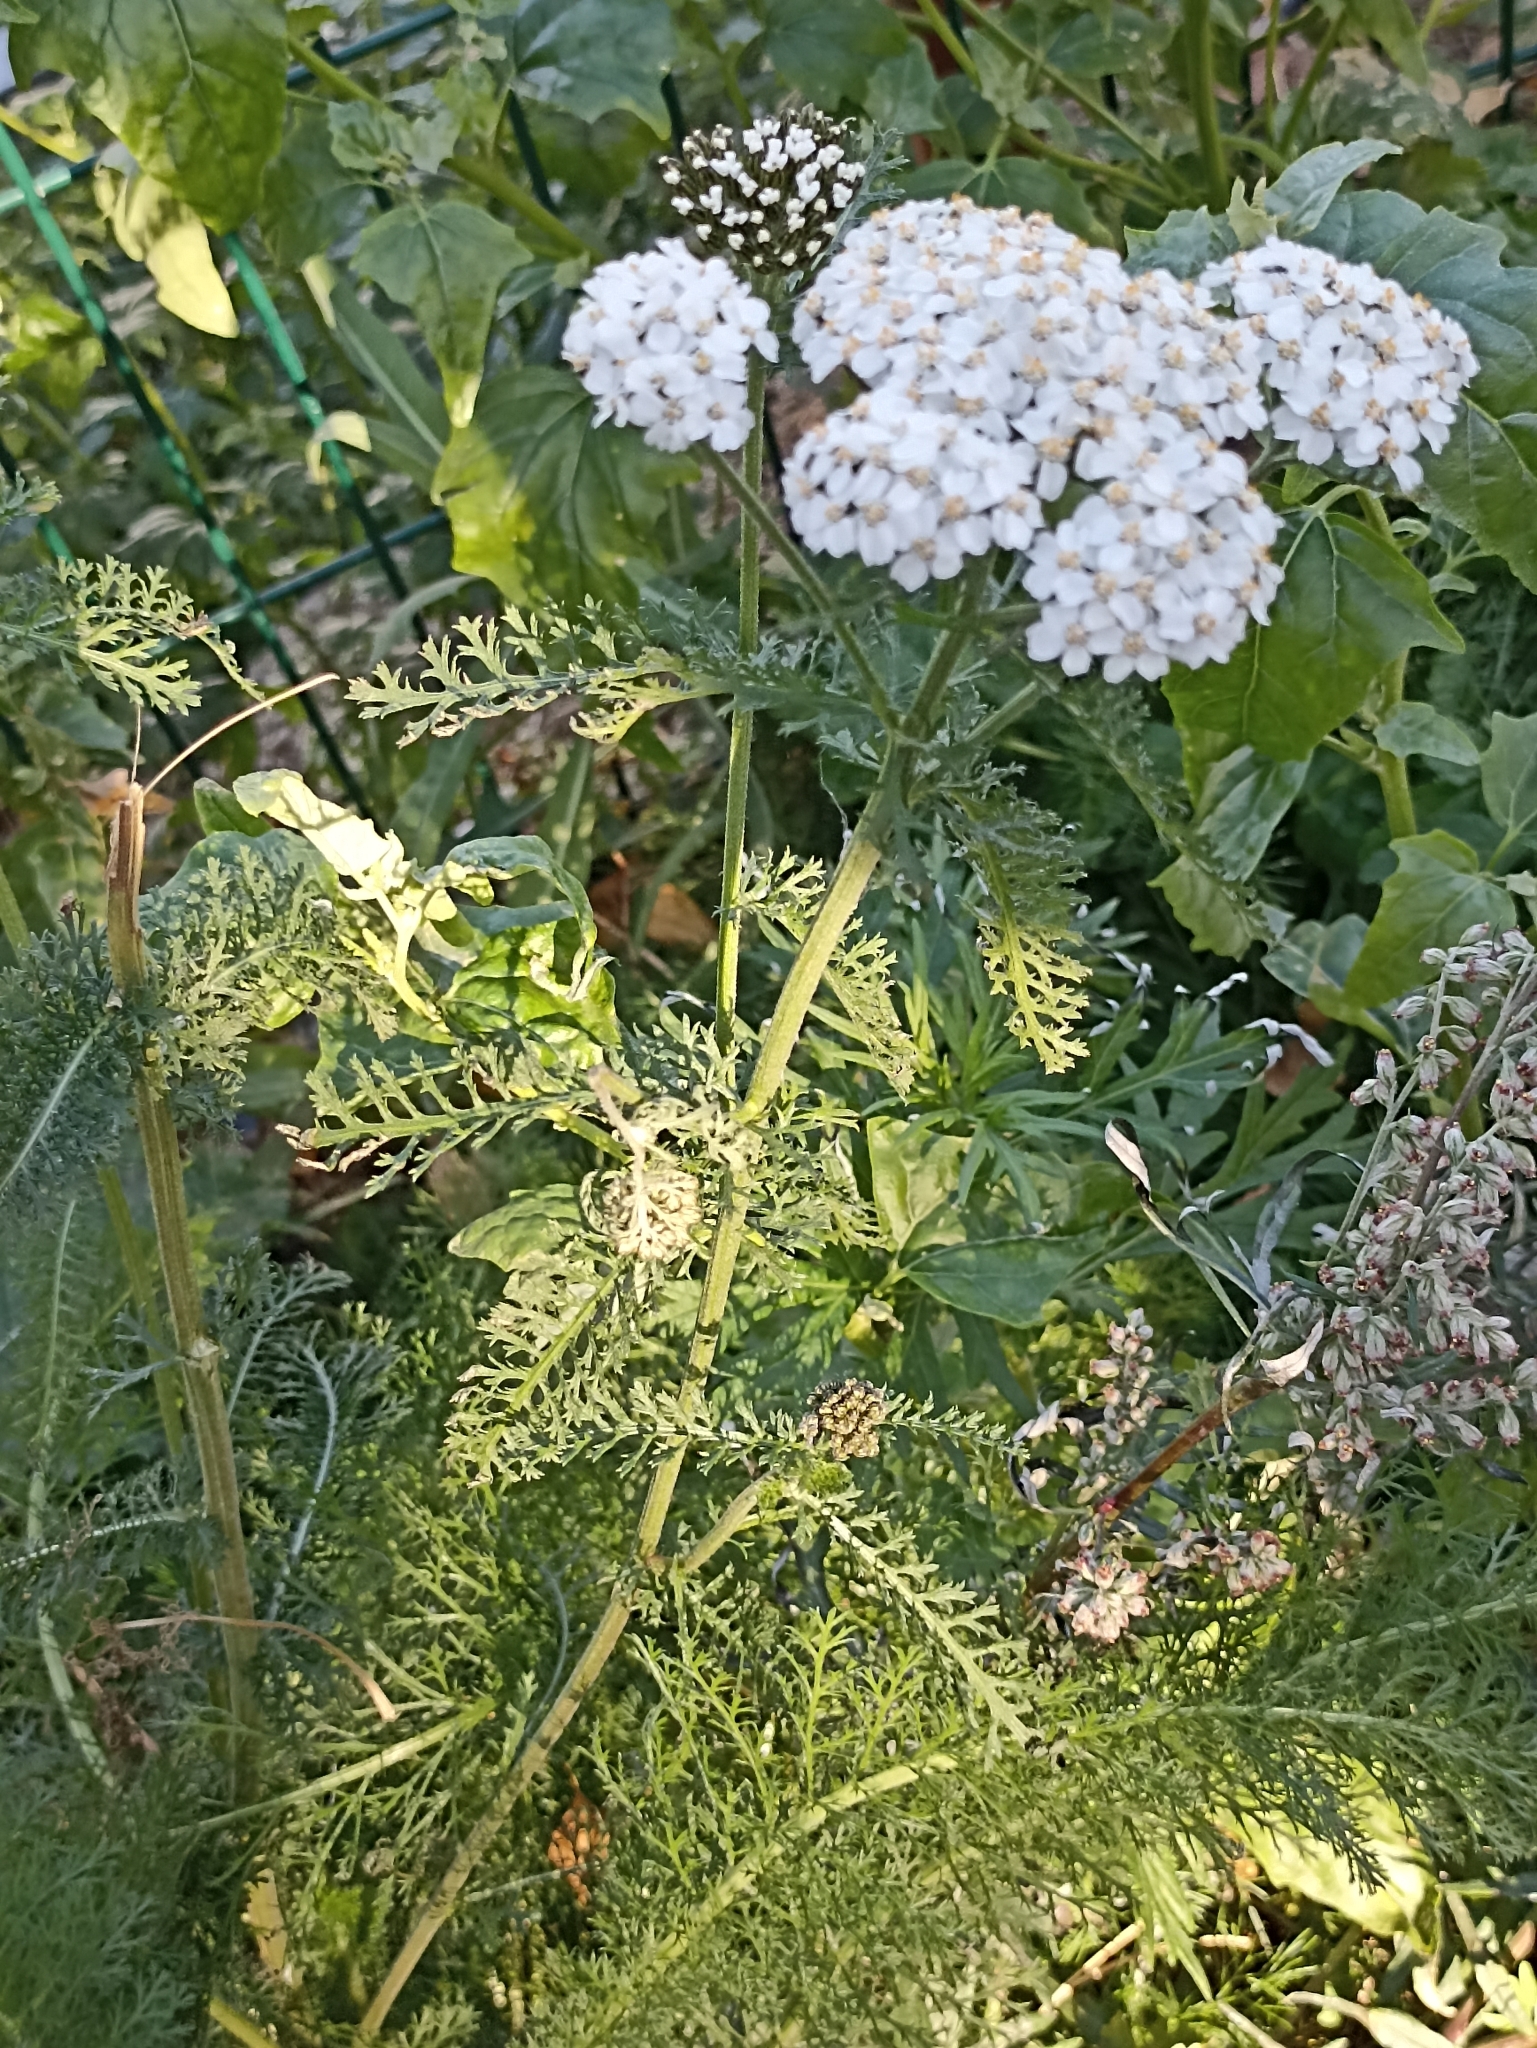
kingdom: Plantae
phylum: Tracheophyta
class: Magnoliopsida
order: Asterales
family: Asteraceae
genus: Achillea
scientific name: Achillea millefolium
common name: Yarrow
